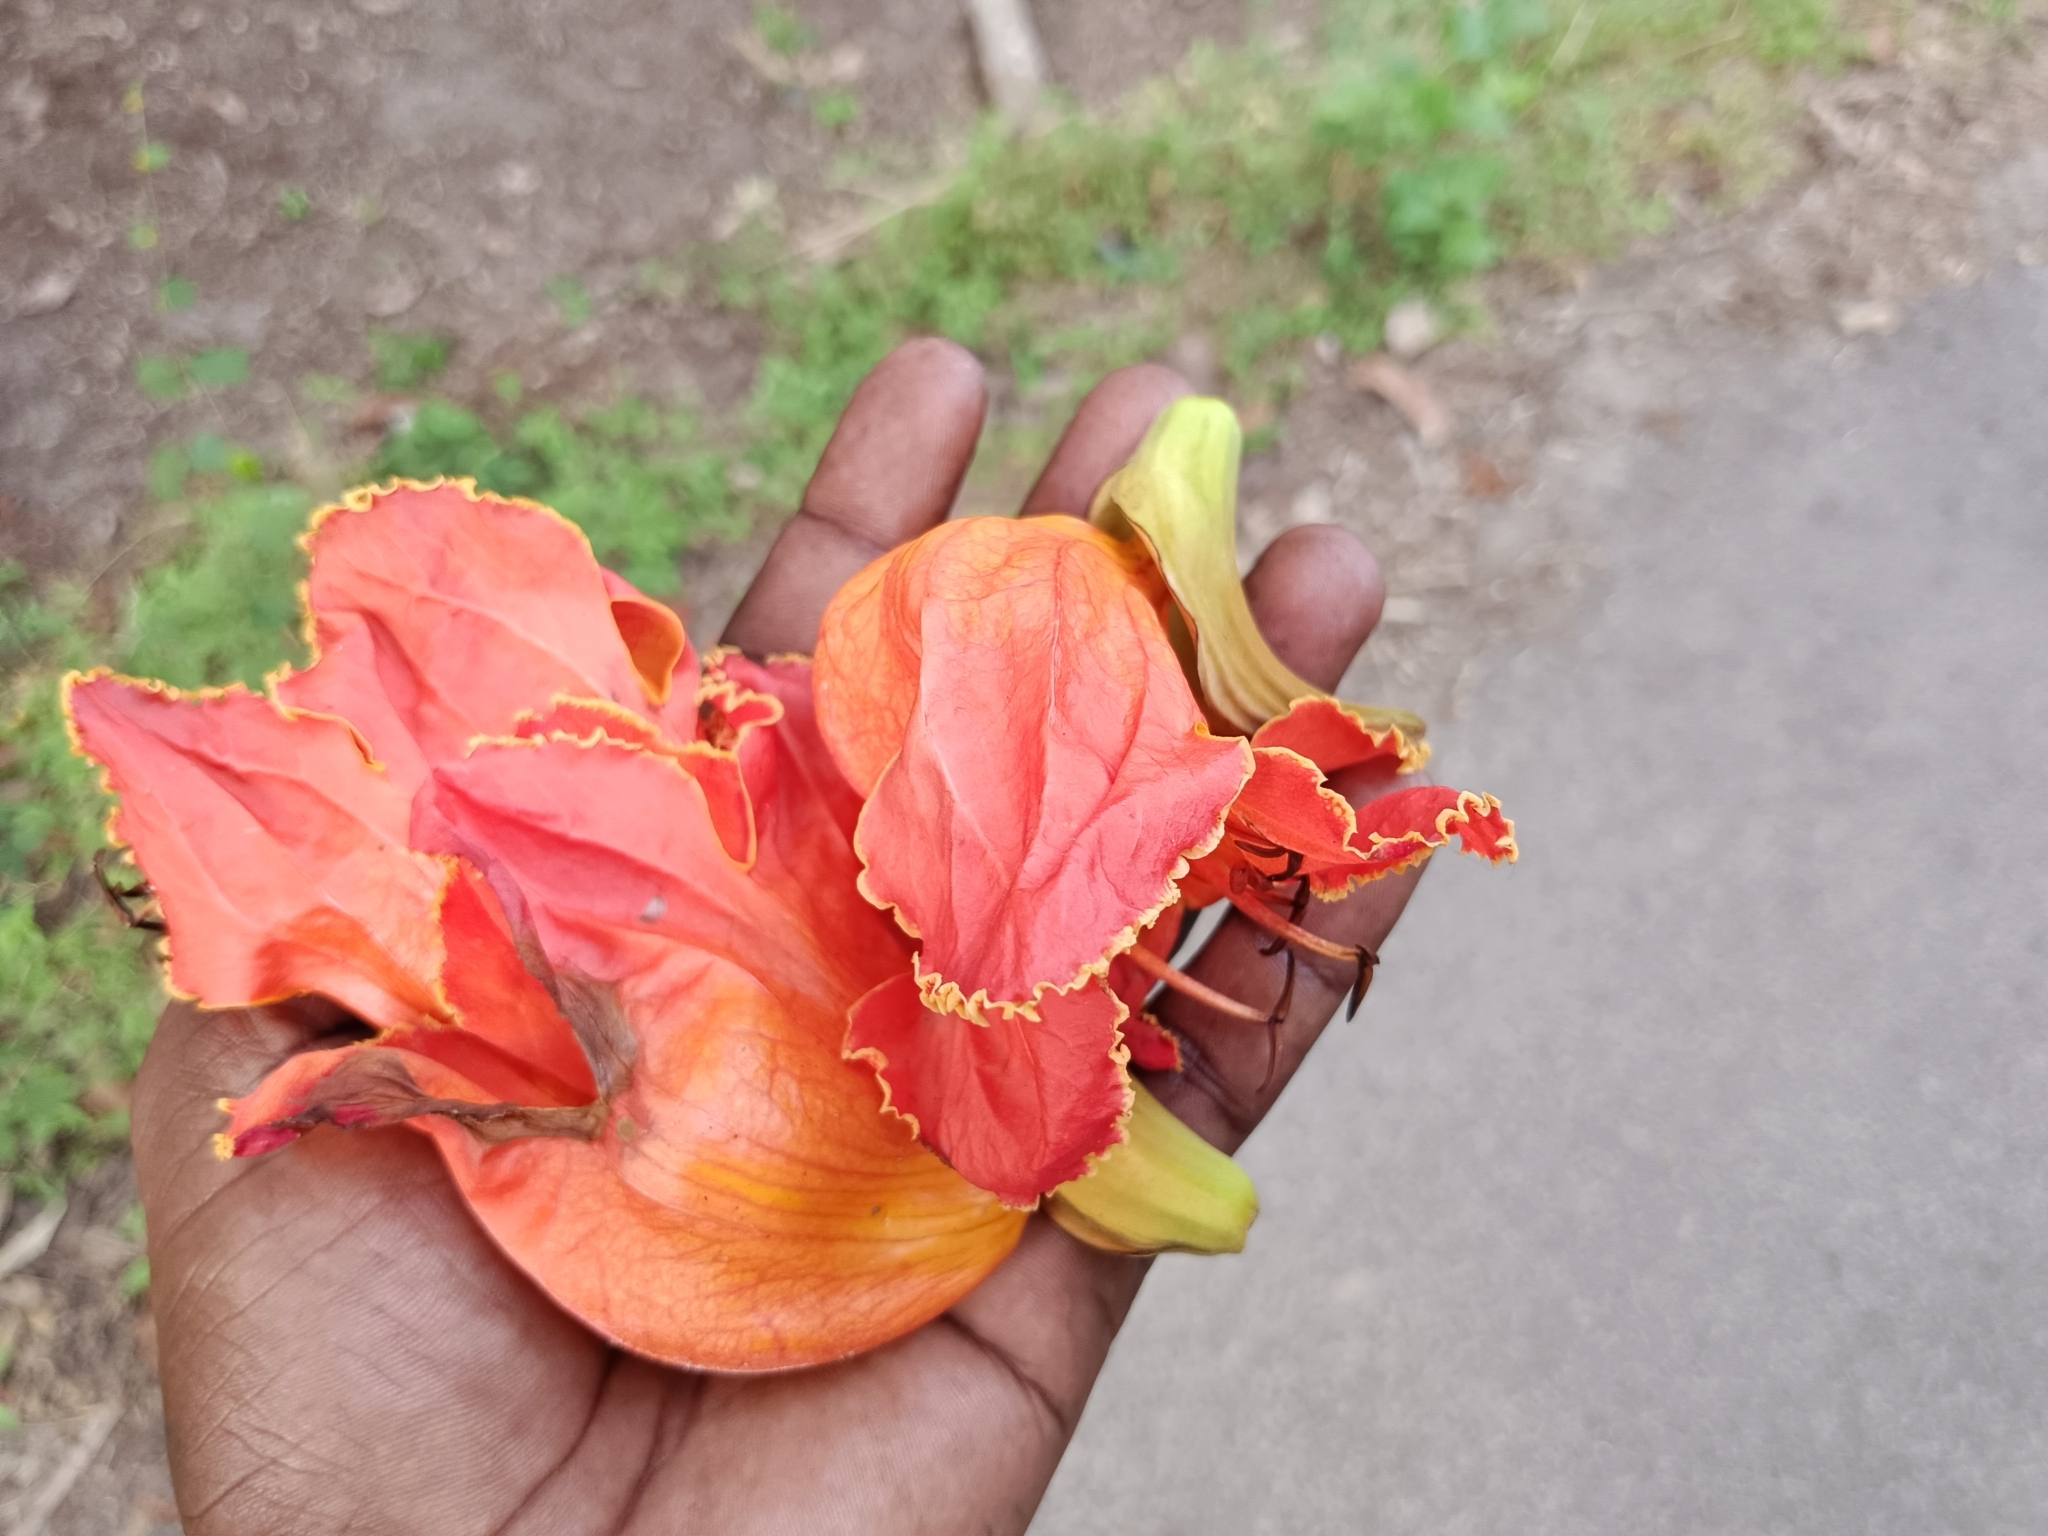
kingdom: Plantae
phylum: Tracheophyta
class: Magnoliopsida
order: Lamiales
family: Bignoniaceae
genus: Spathodea
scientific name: Spathodea campanulata
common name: African tuliptree
